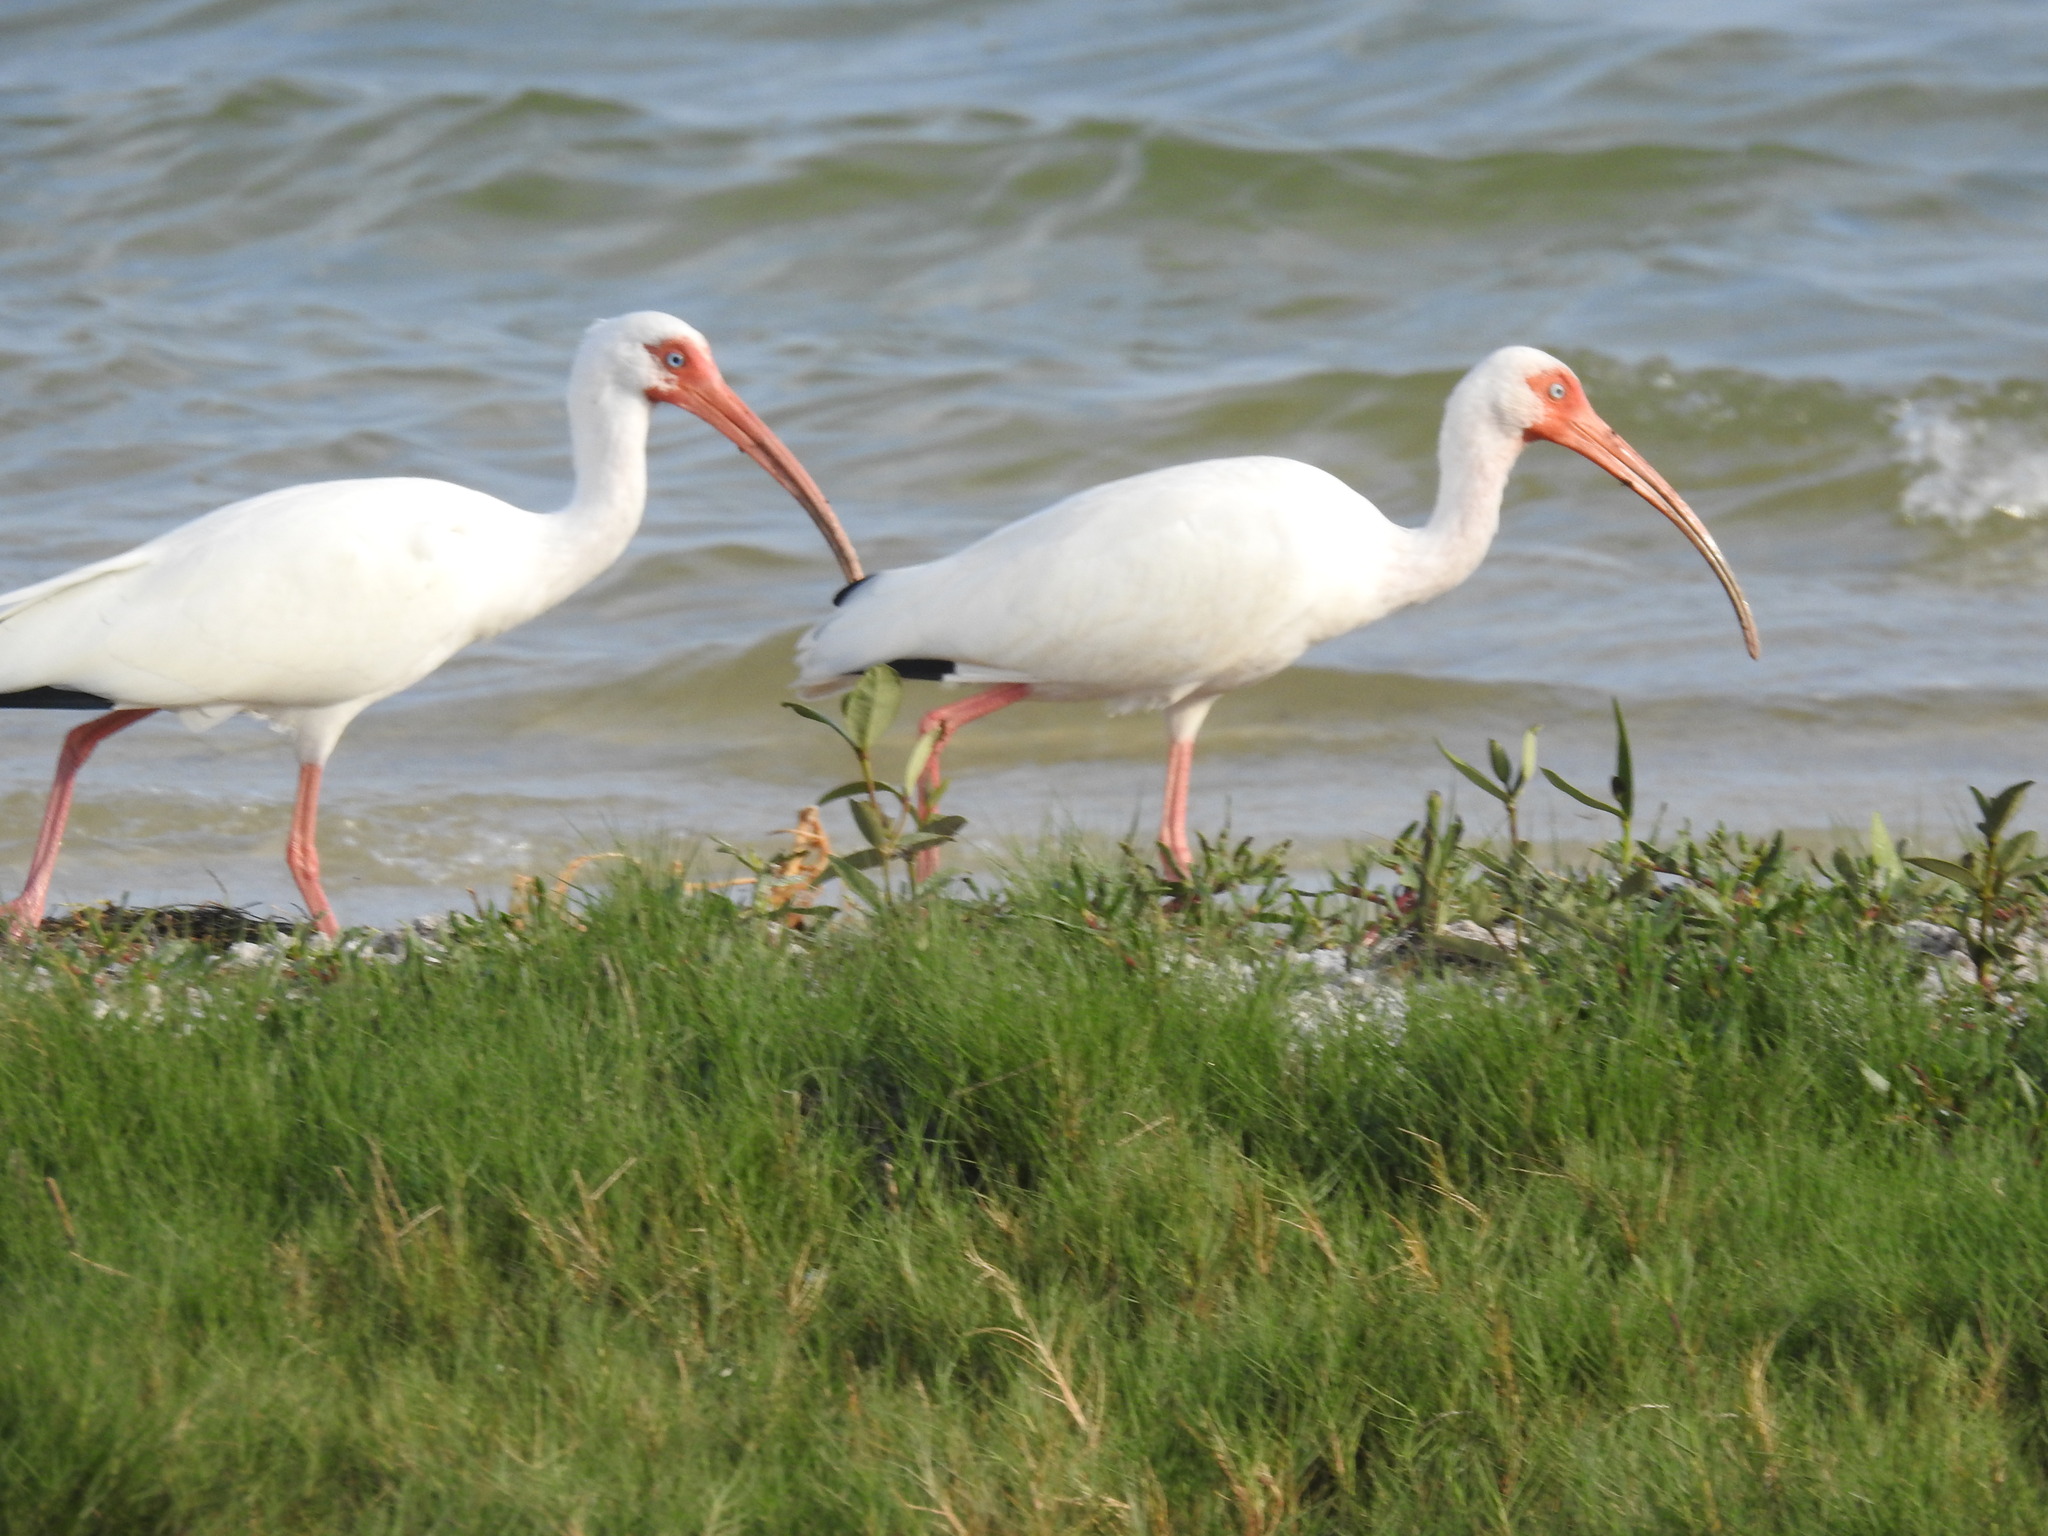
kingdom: Animalia
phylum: Chordata
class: Aves
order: Pelecaniformes
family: Threskiornithidae
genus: Eudocimus
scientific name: Eudocimus albus
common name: White ibis
